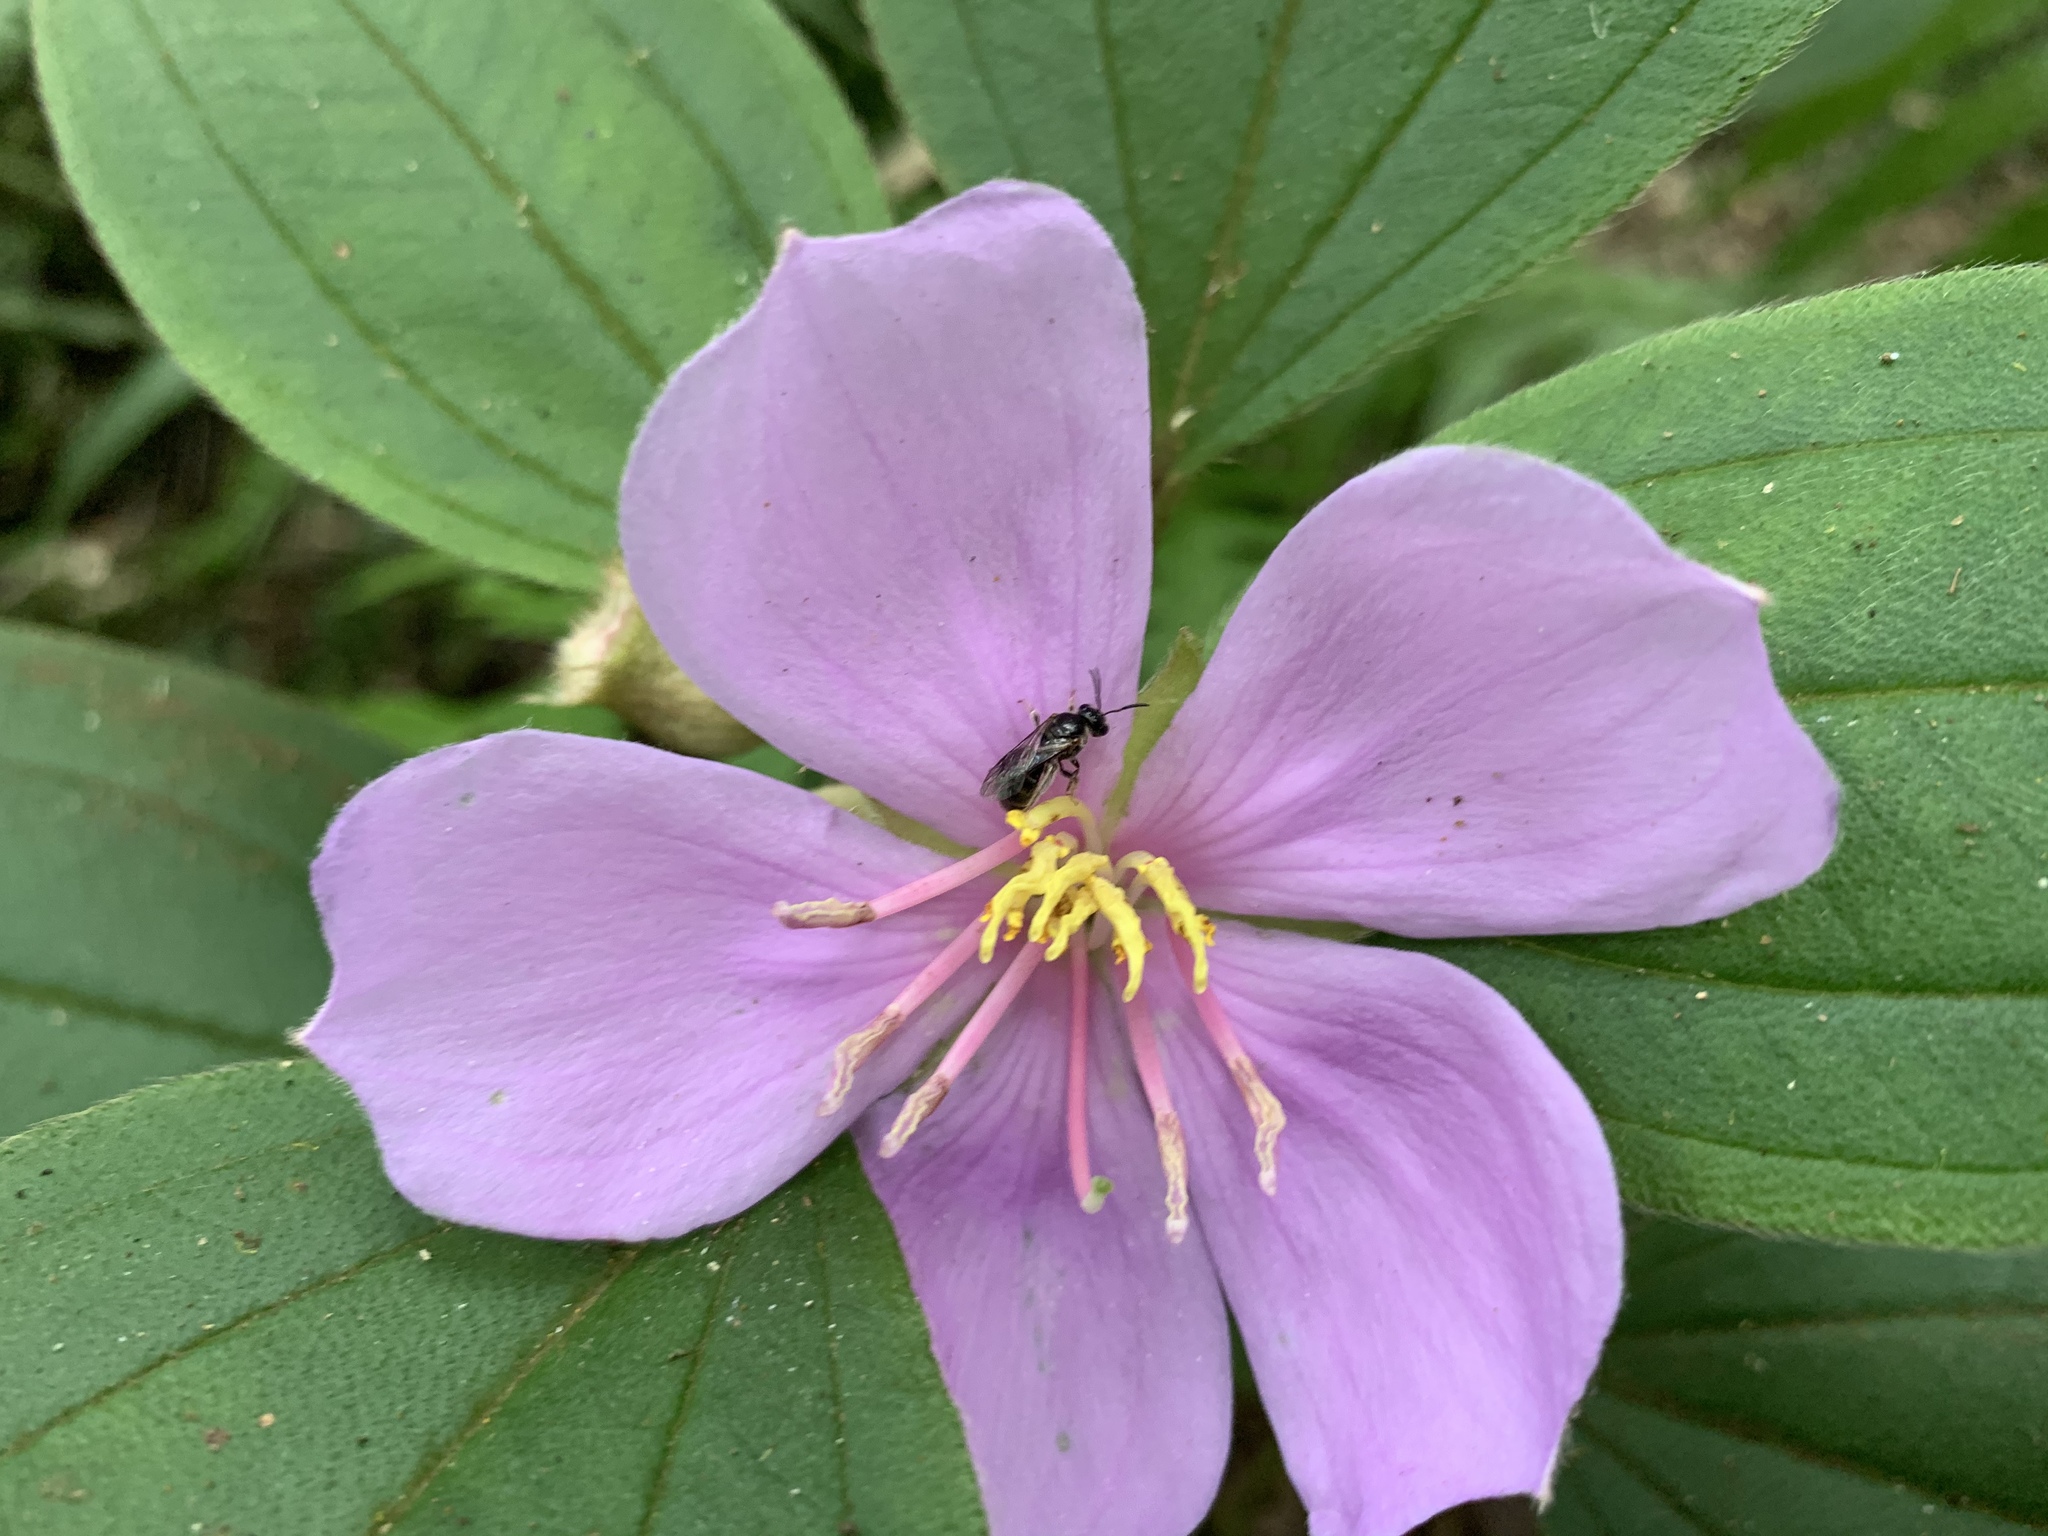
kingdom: Plantae
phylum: Tracheophyta
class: Magnoliopsida
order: Myrtales
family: Melastomataceae
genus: Melastoma
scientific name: Melastoma malabathricum
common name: Indian-rhododendron
